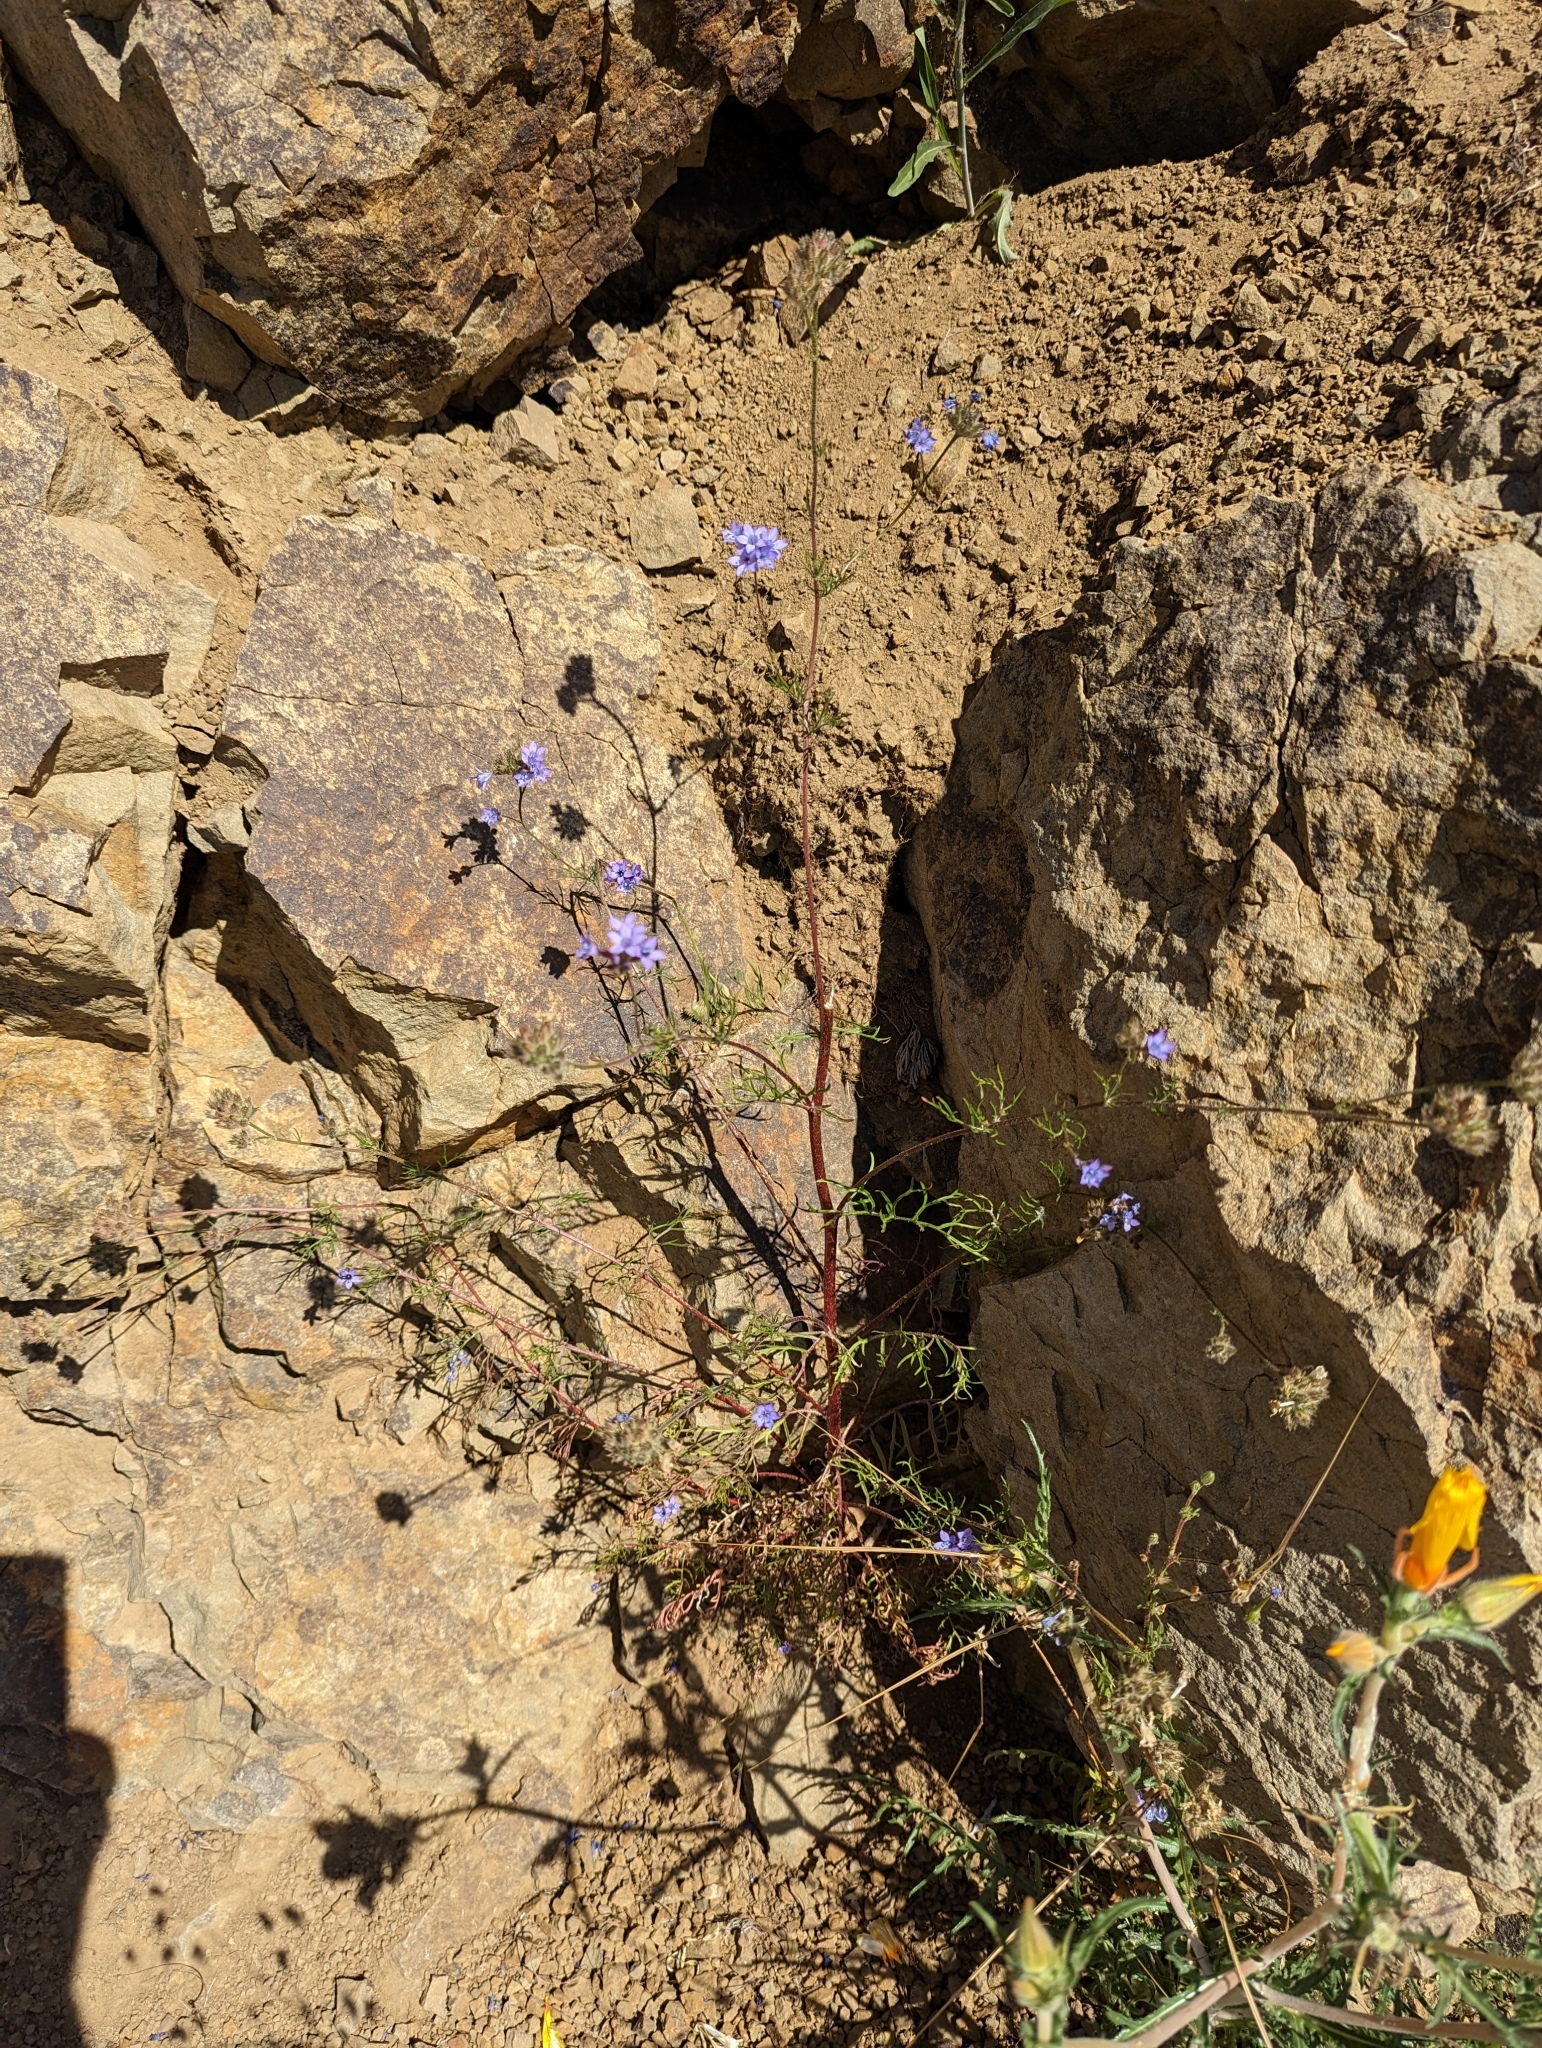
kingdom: Plantae
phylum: Tracheophyta
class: Magnoliopsida
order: Ericales
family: Polemoniaceae
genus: Gilia
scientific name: Gilia achilleifolia
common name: California gily-flower
